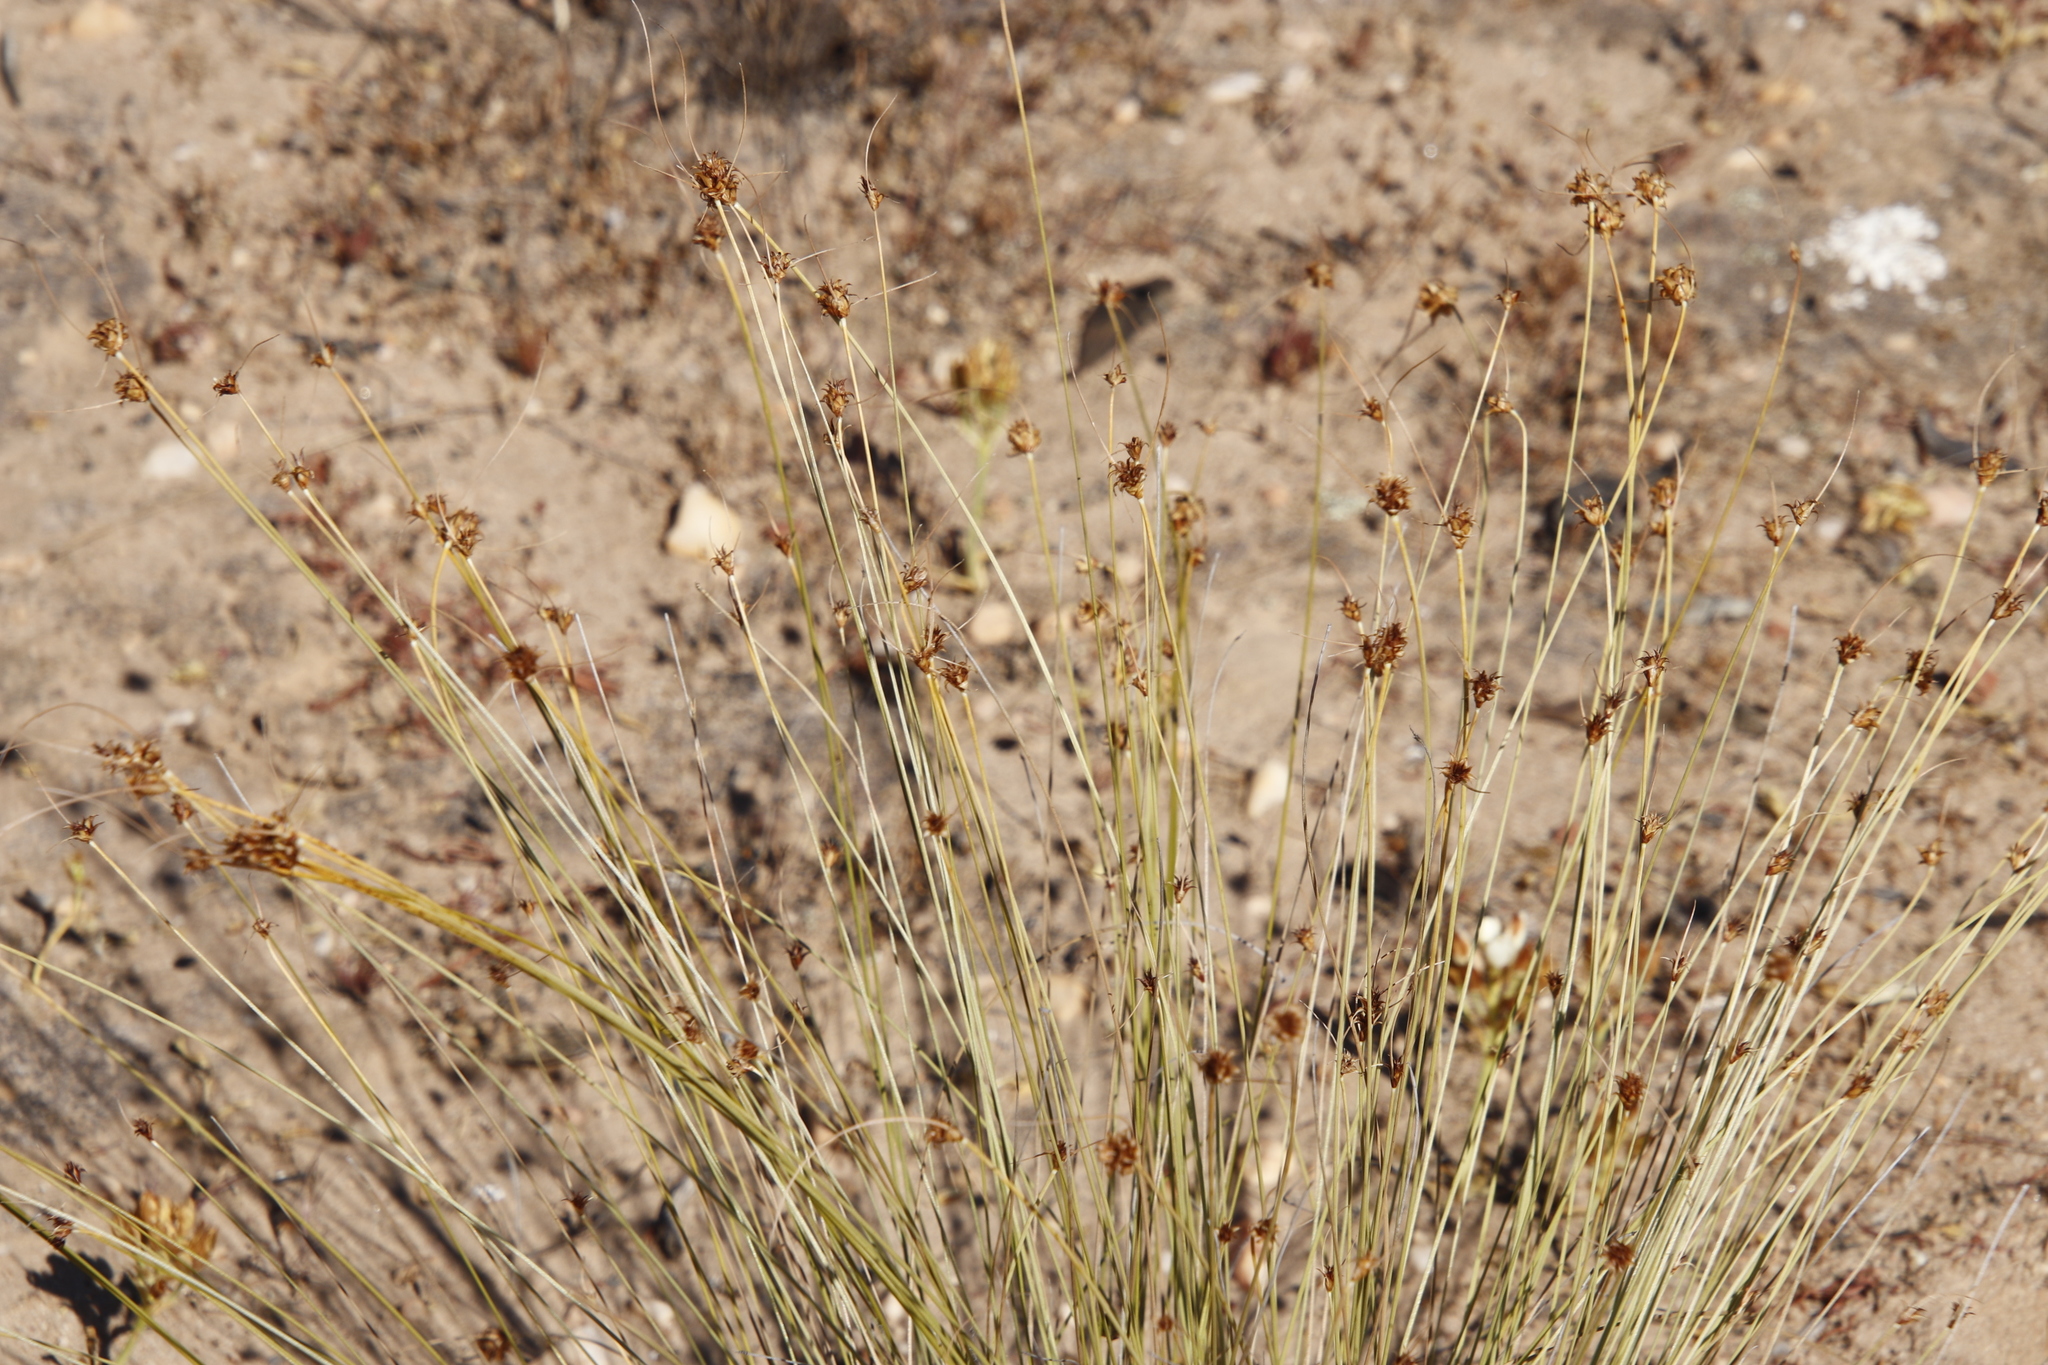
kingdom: Plantae
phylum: Tracheophyta
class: Liliopsida
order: Poales
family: Cyperaceae
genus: Ficinia
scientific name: Ficinia nigrescens
